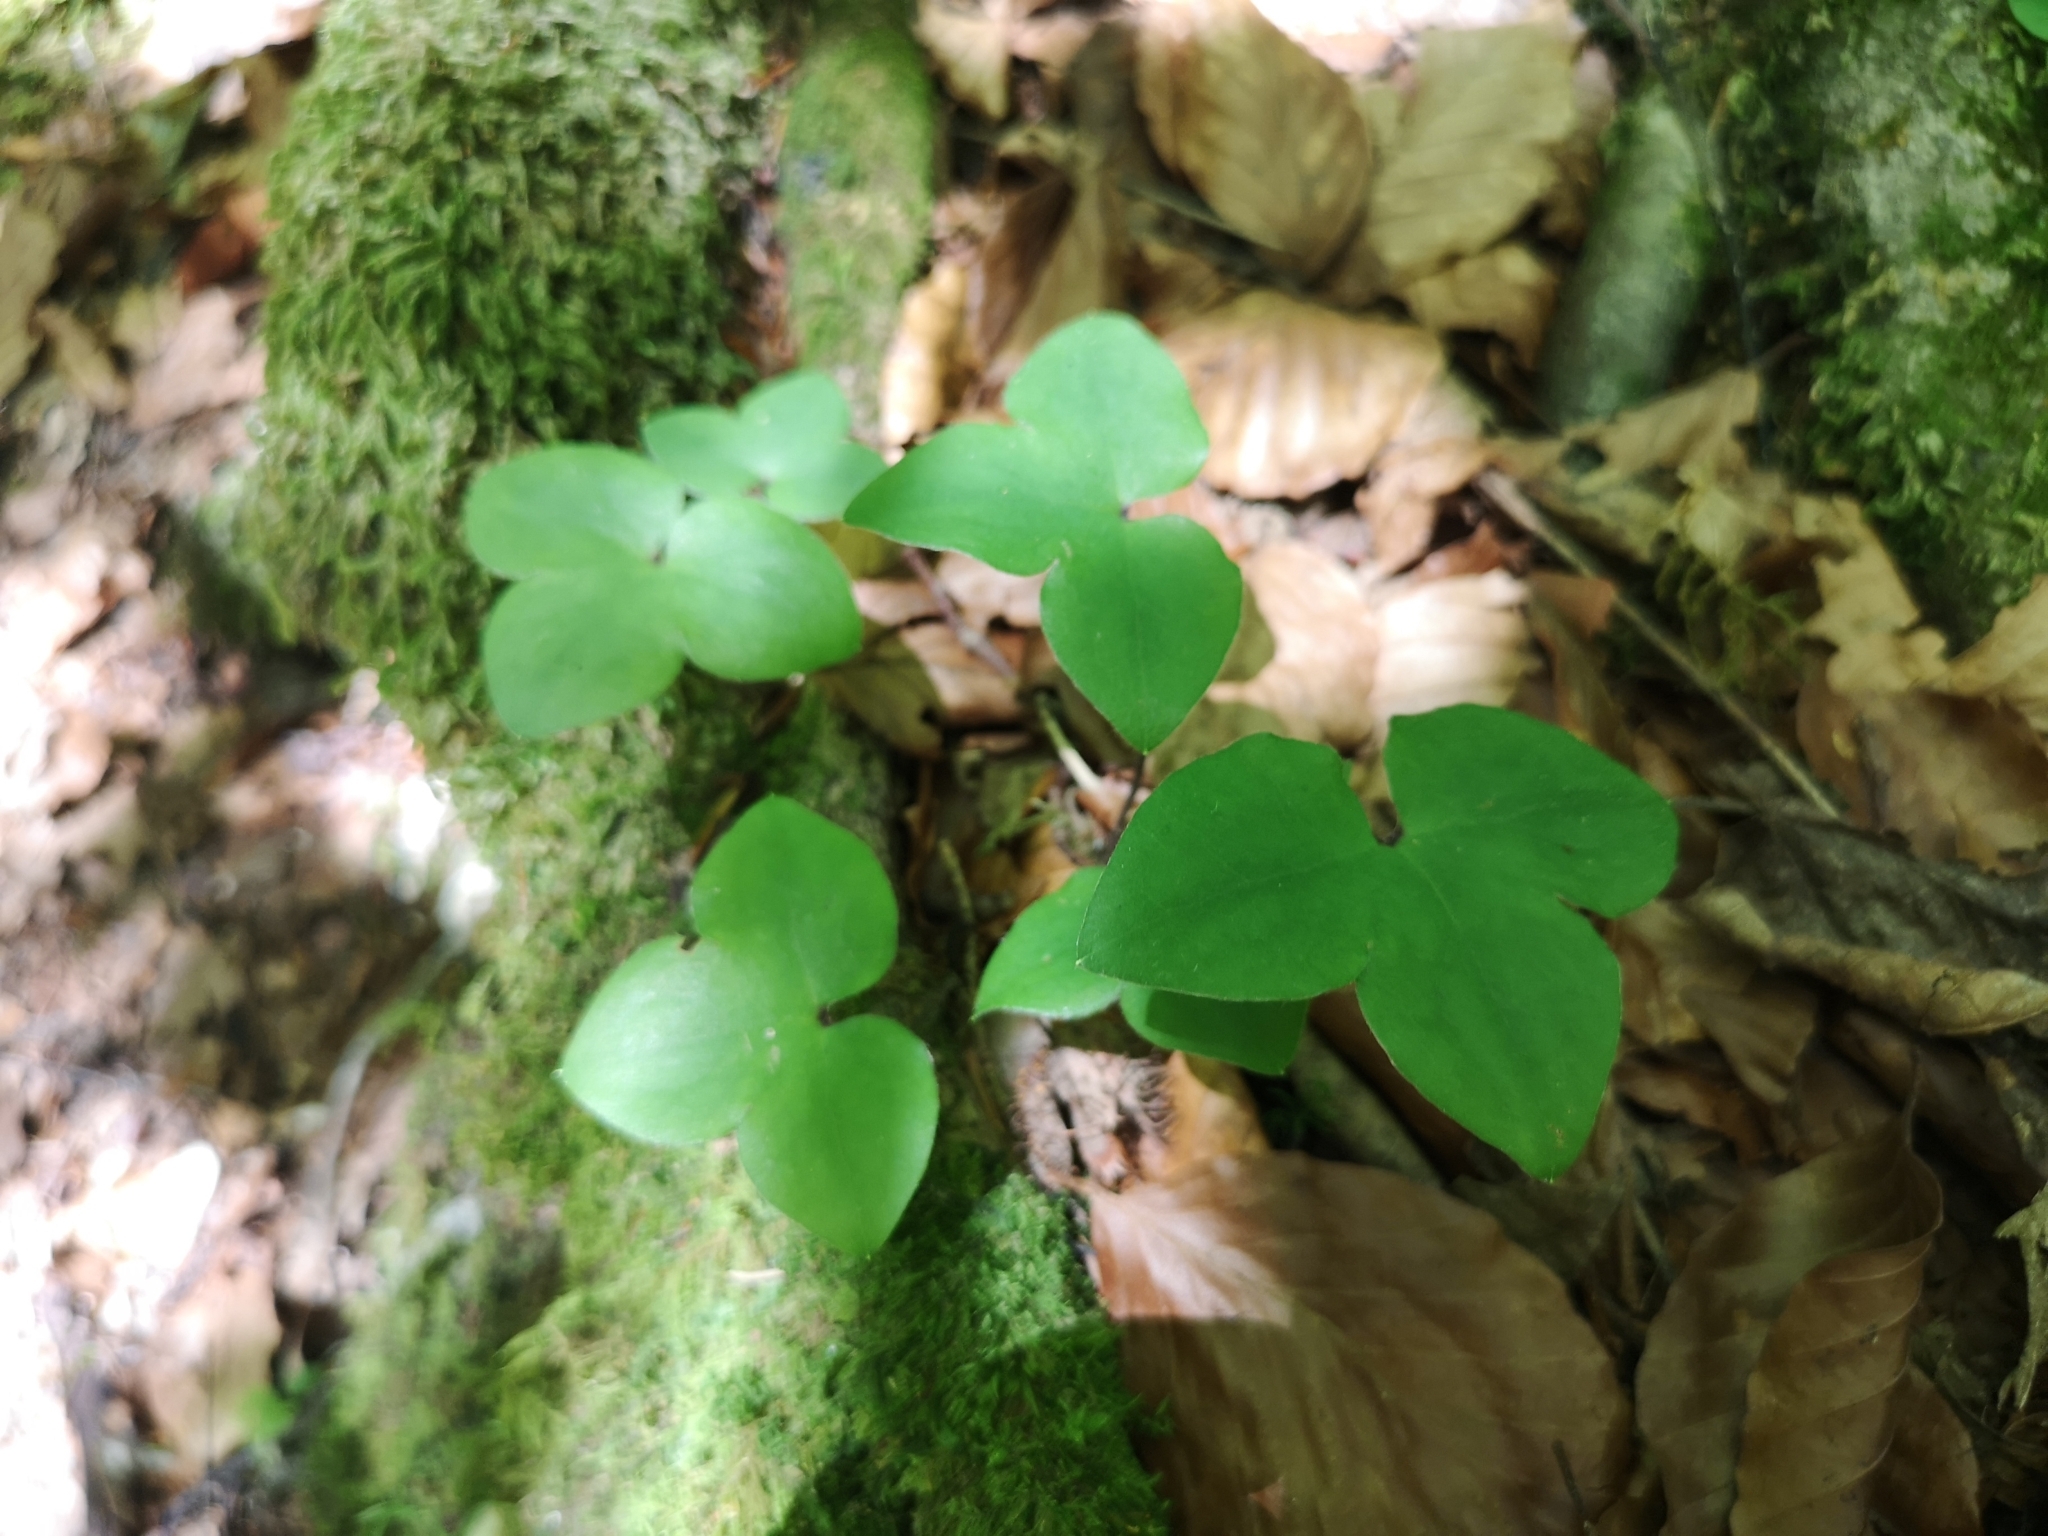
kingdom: Plantae
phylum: Tracheophyta
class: Magnoliopsida
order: Ranunculales
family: Ranunculaceae
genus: Hepatica
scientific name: Hepatica nobilis
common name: Liverleaf
